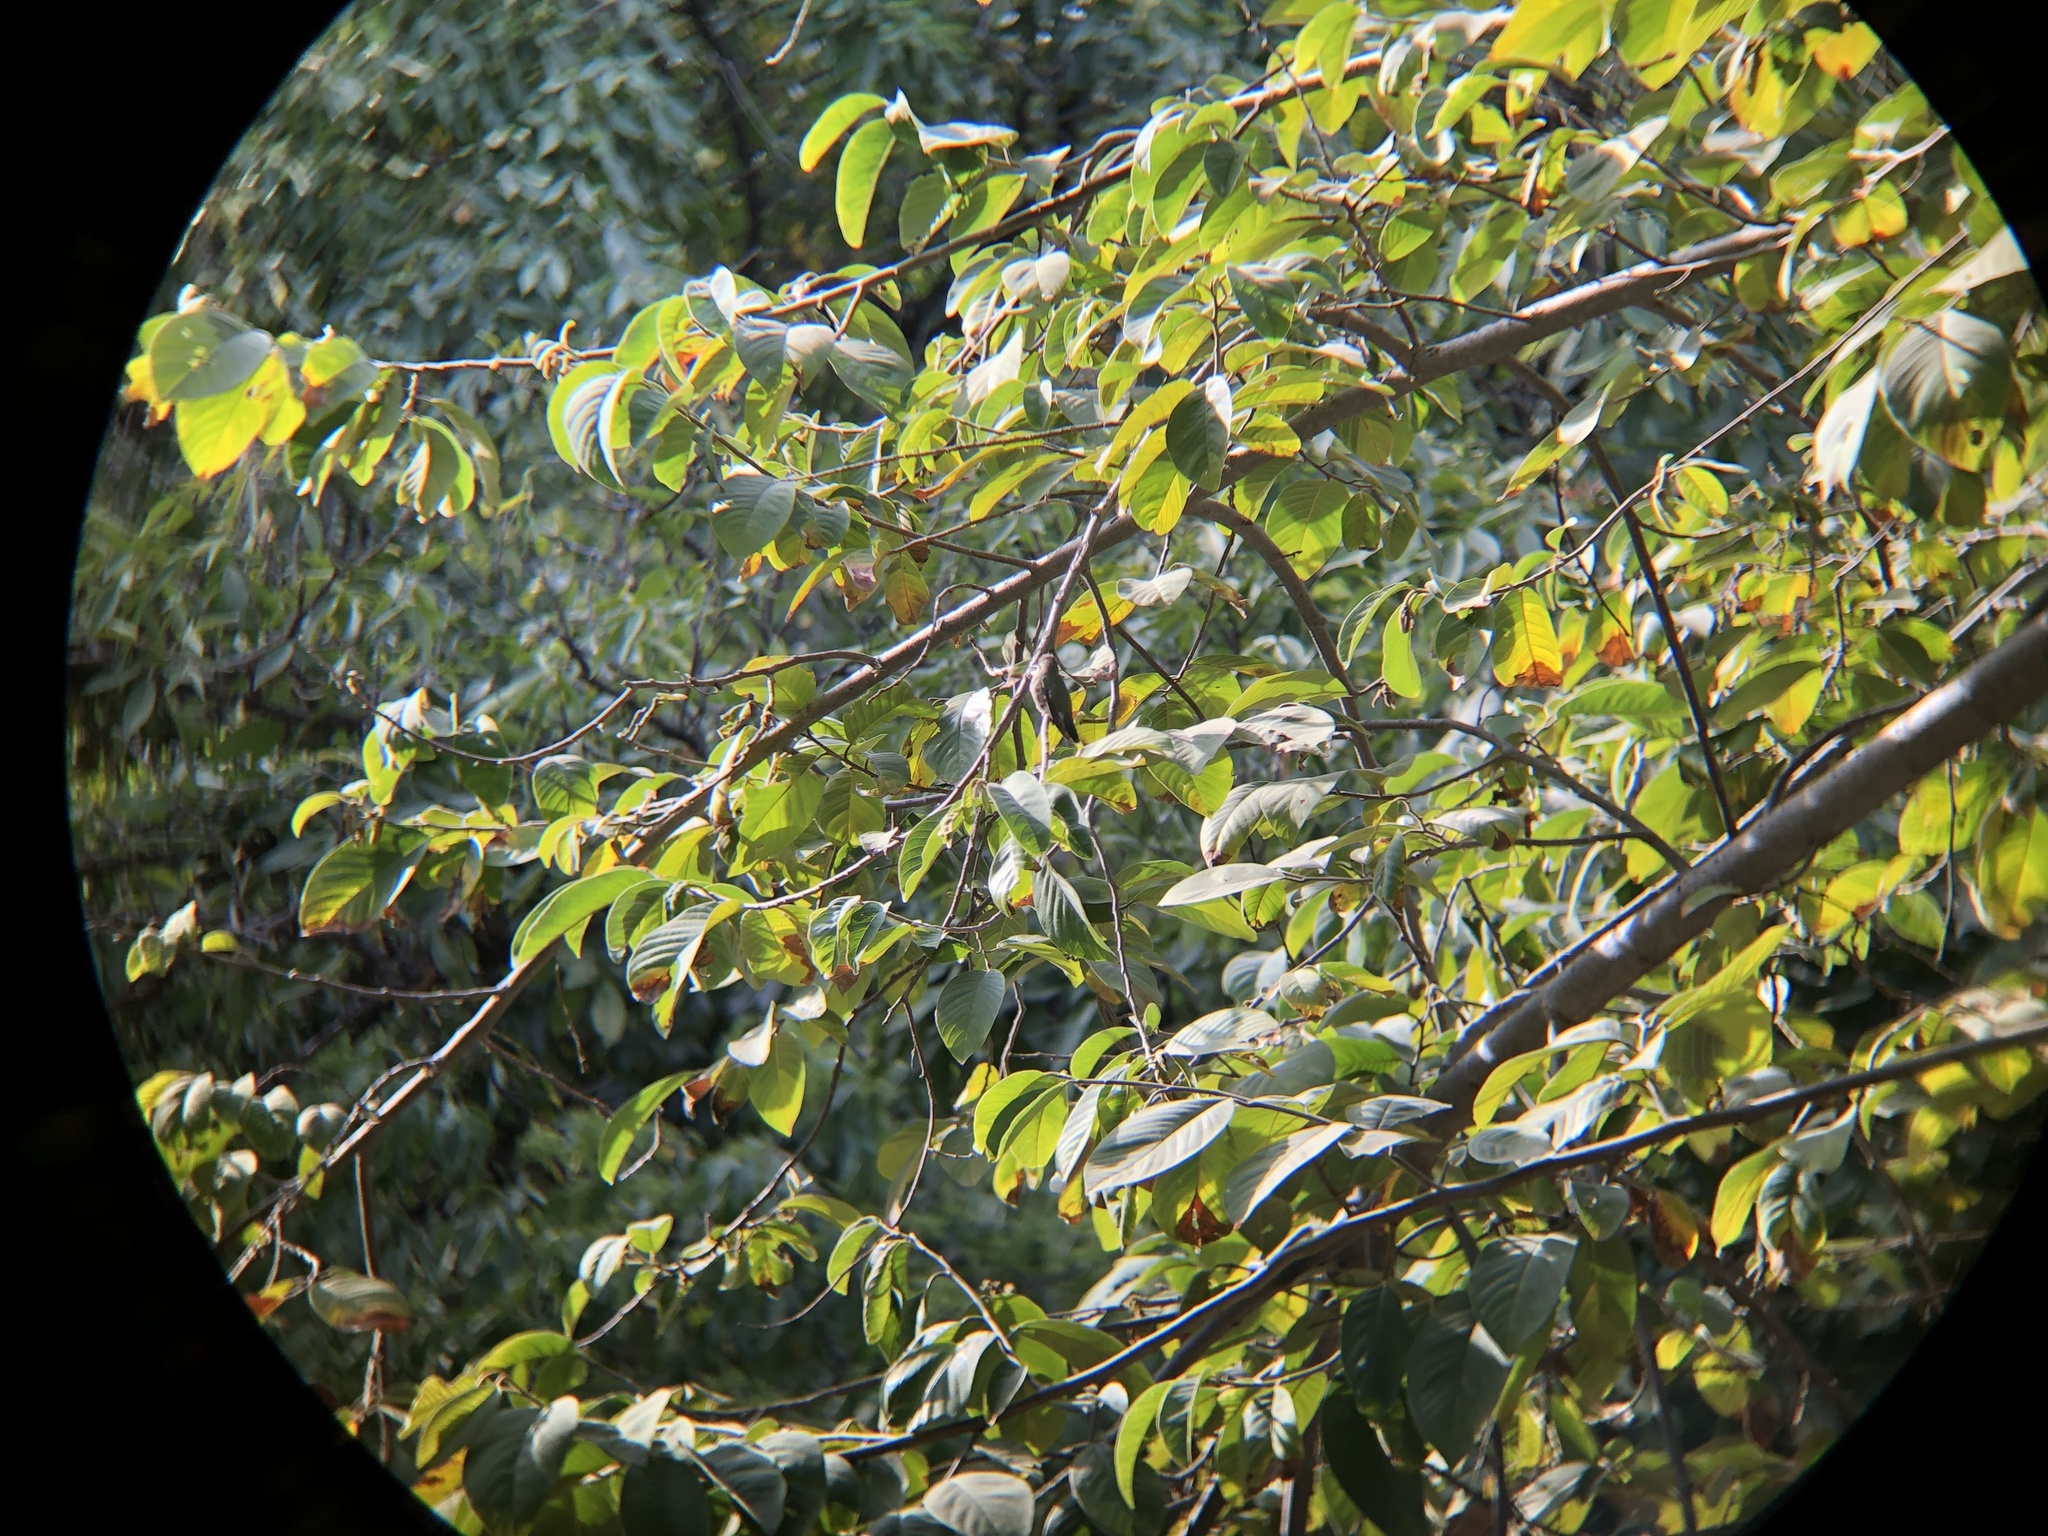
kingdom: Animalia
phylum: Chordata
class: Aves
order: Apodiformes
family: Trochilidae
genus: Cynanthus
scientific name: Cynanthus latirostris
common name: Broad-billed hummingbird
